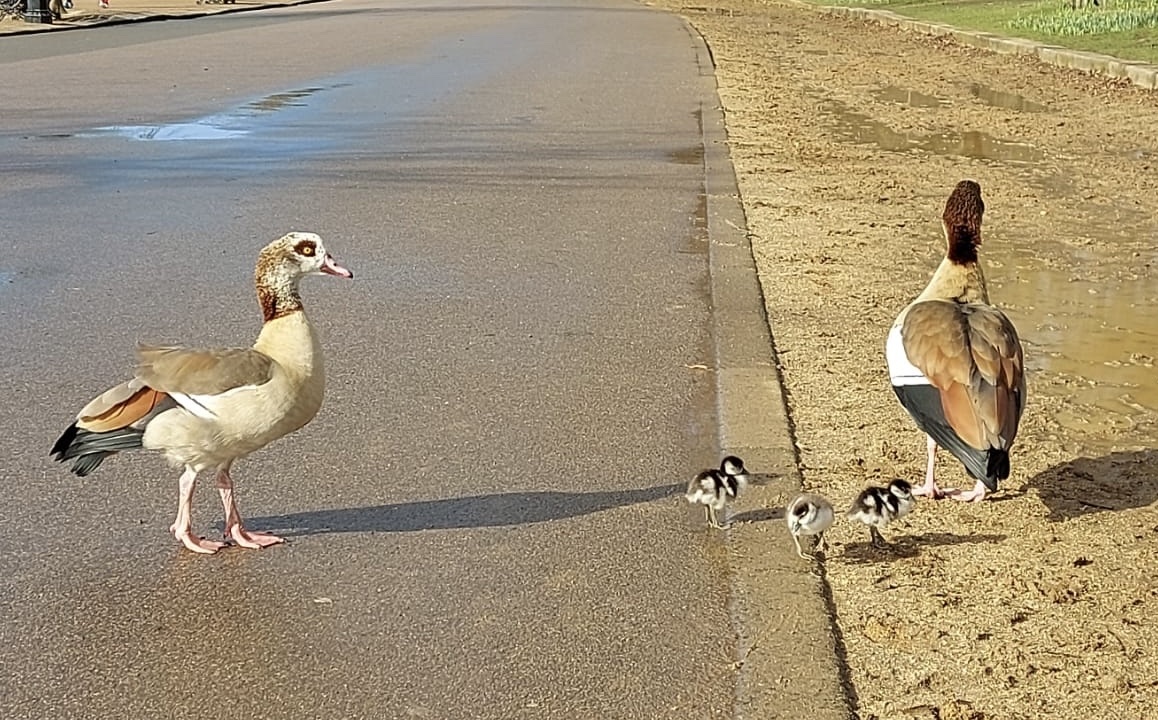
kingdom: Animalia
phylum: Chordata
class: Aves
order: Anseriformes
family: Anatidae
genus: Alopochen
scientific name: Alopochen aegyptiaca
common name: Egyptian goose
